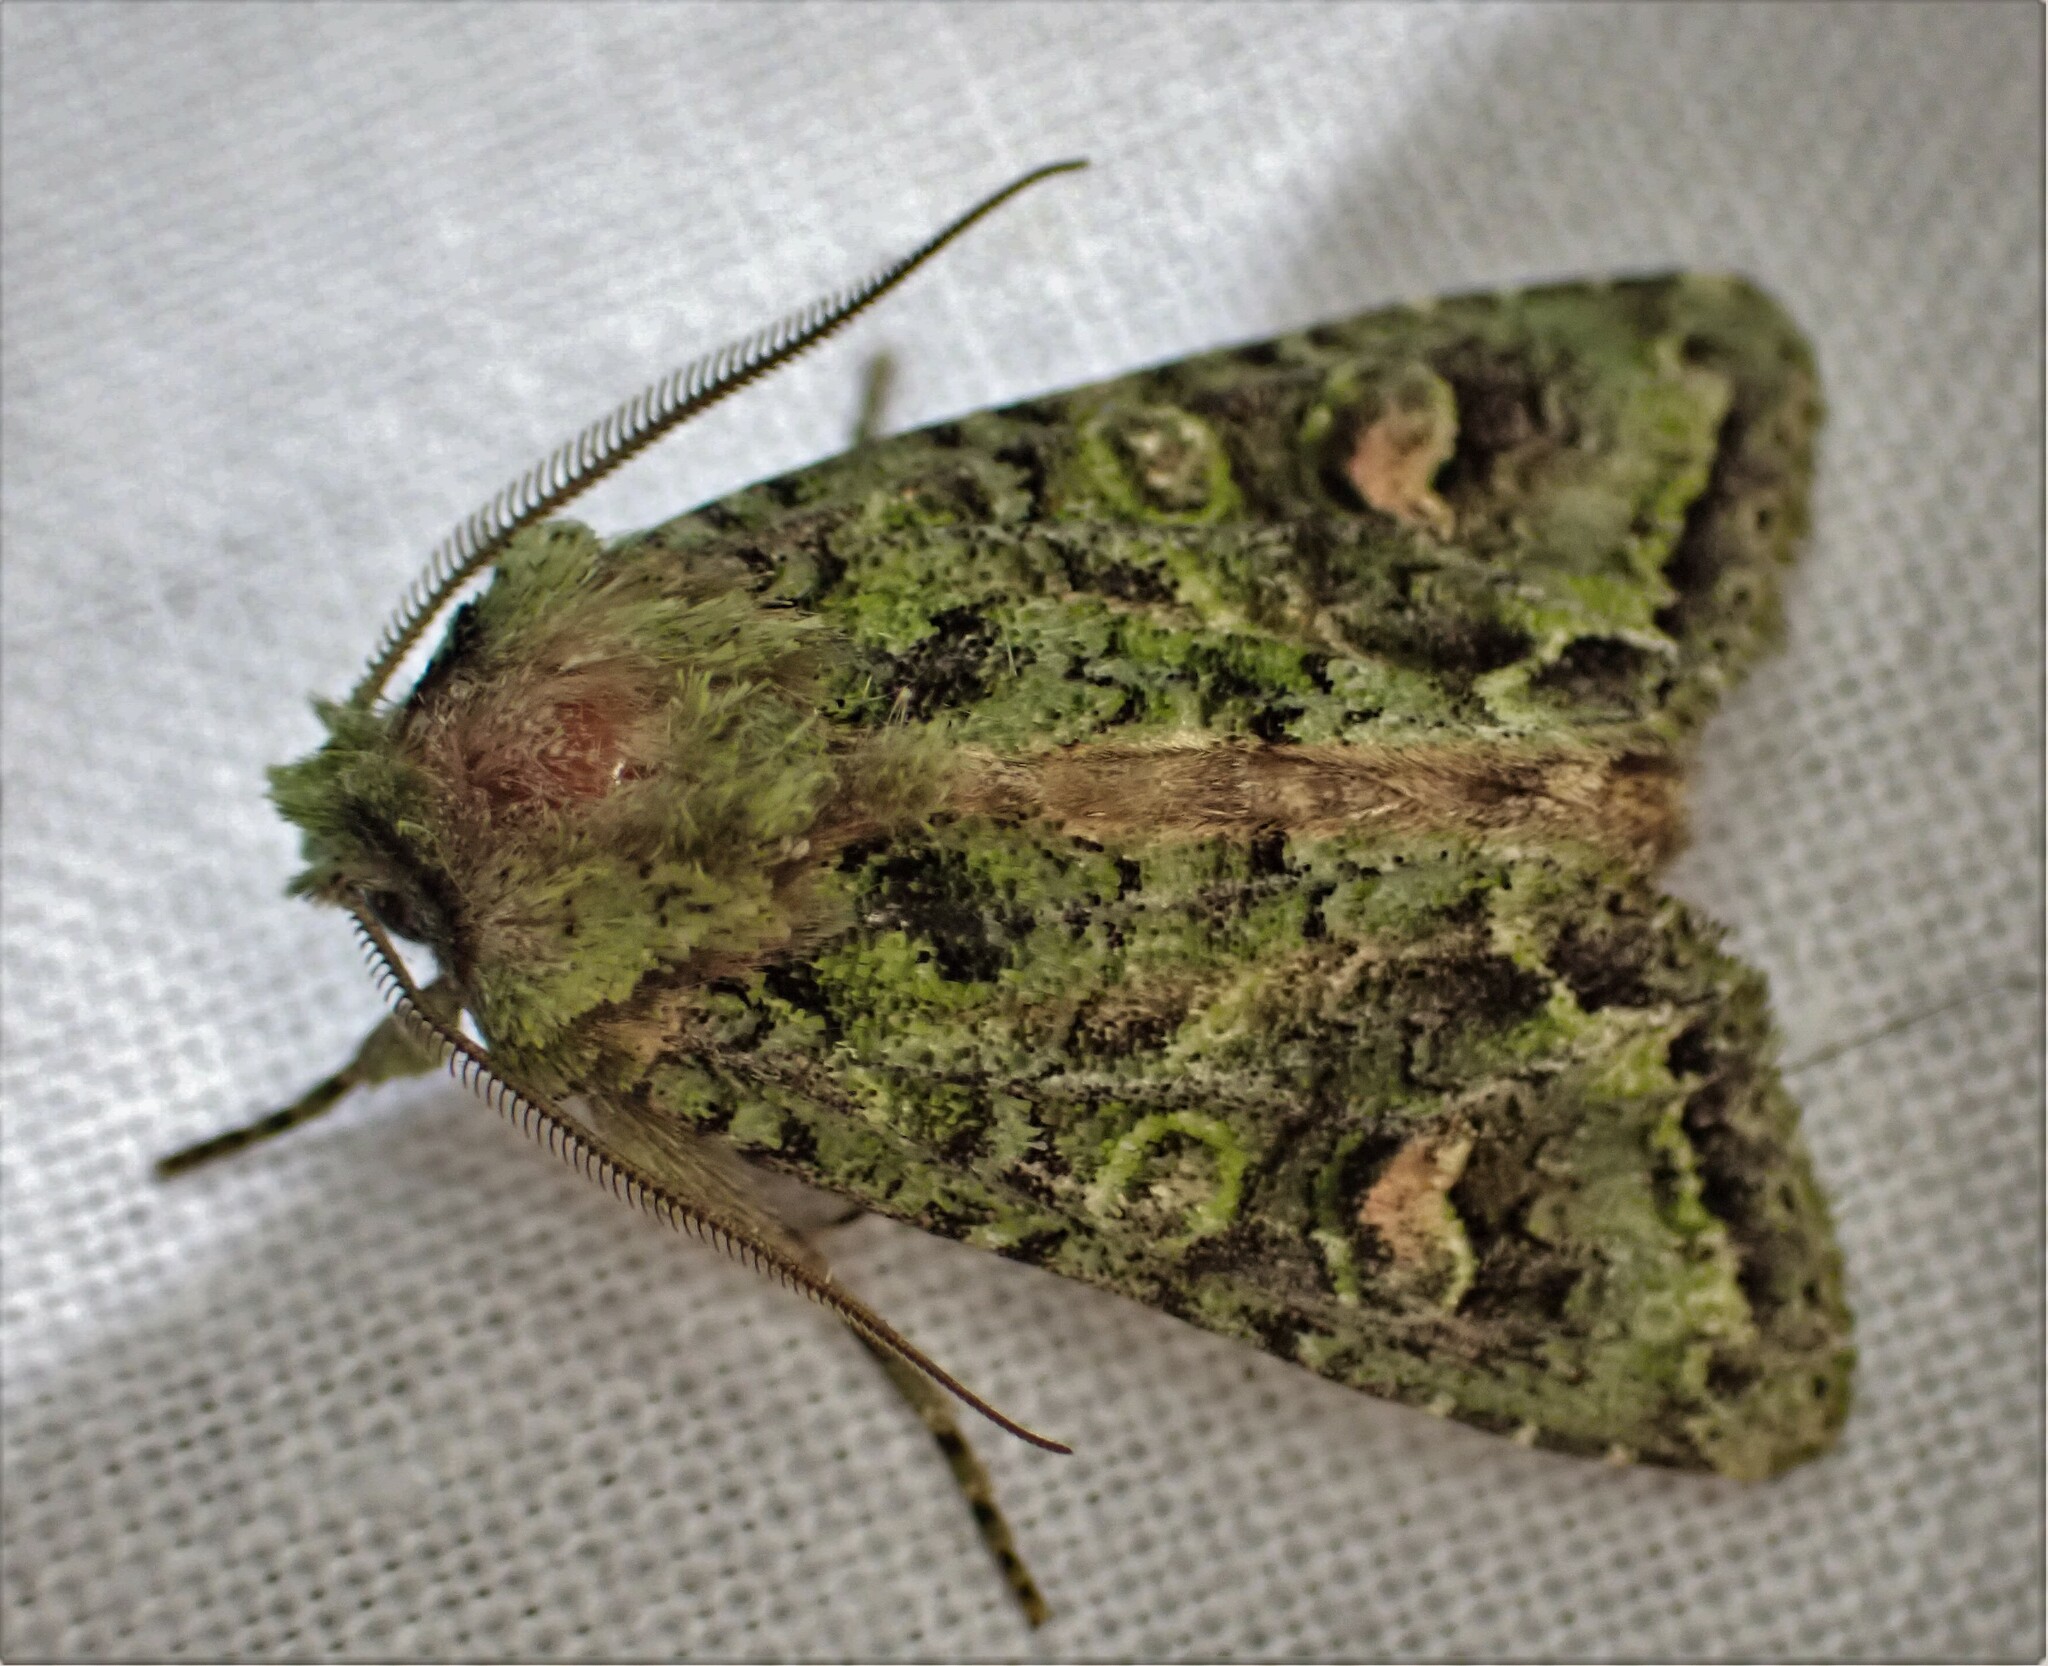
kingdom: Animalia
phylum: Arthropoda
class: Insecta
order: Lepidoptera
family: Noctuidae
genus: Ichneutica
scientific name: Ichneutica
